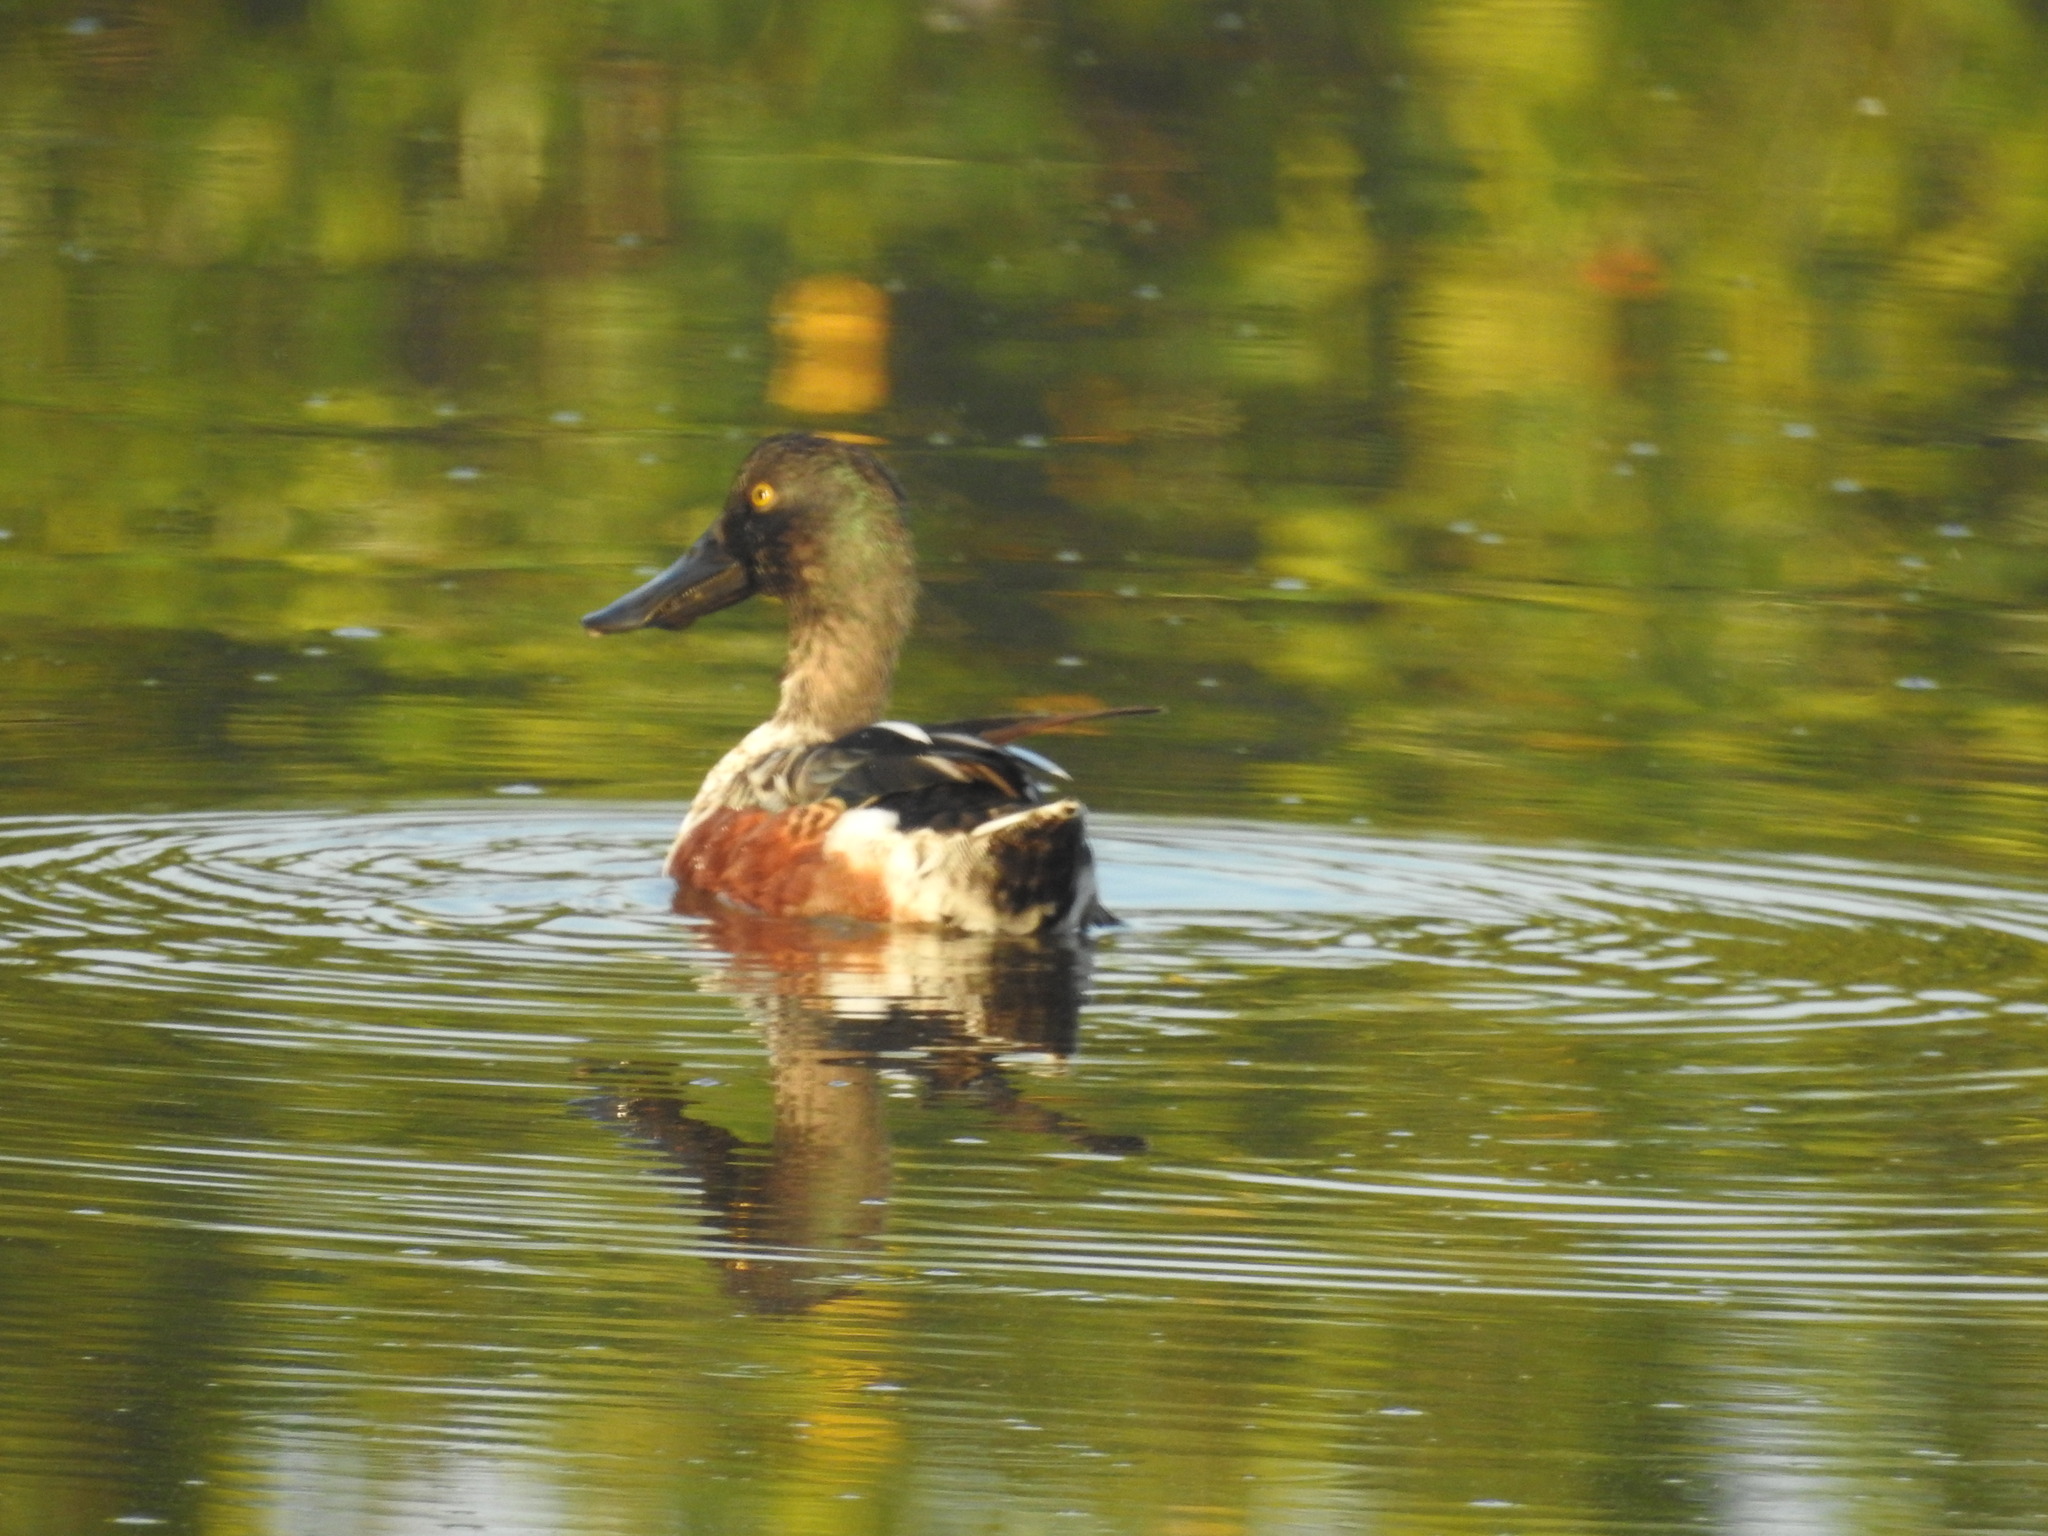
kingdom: Animalia
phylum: Chordata
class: Aves
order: Anseriformes
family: Anatidae
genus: Spatula
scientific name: Spatula clypeata
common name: Northern shoveler
